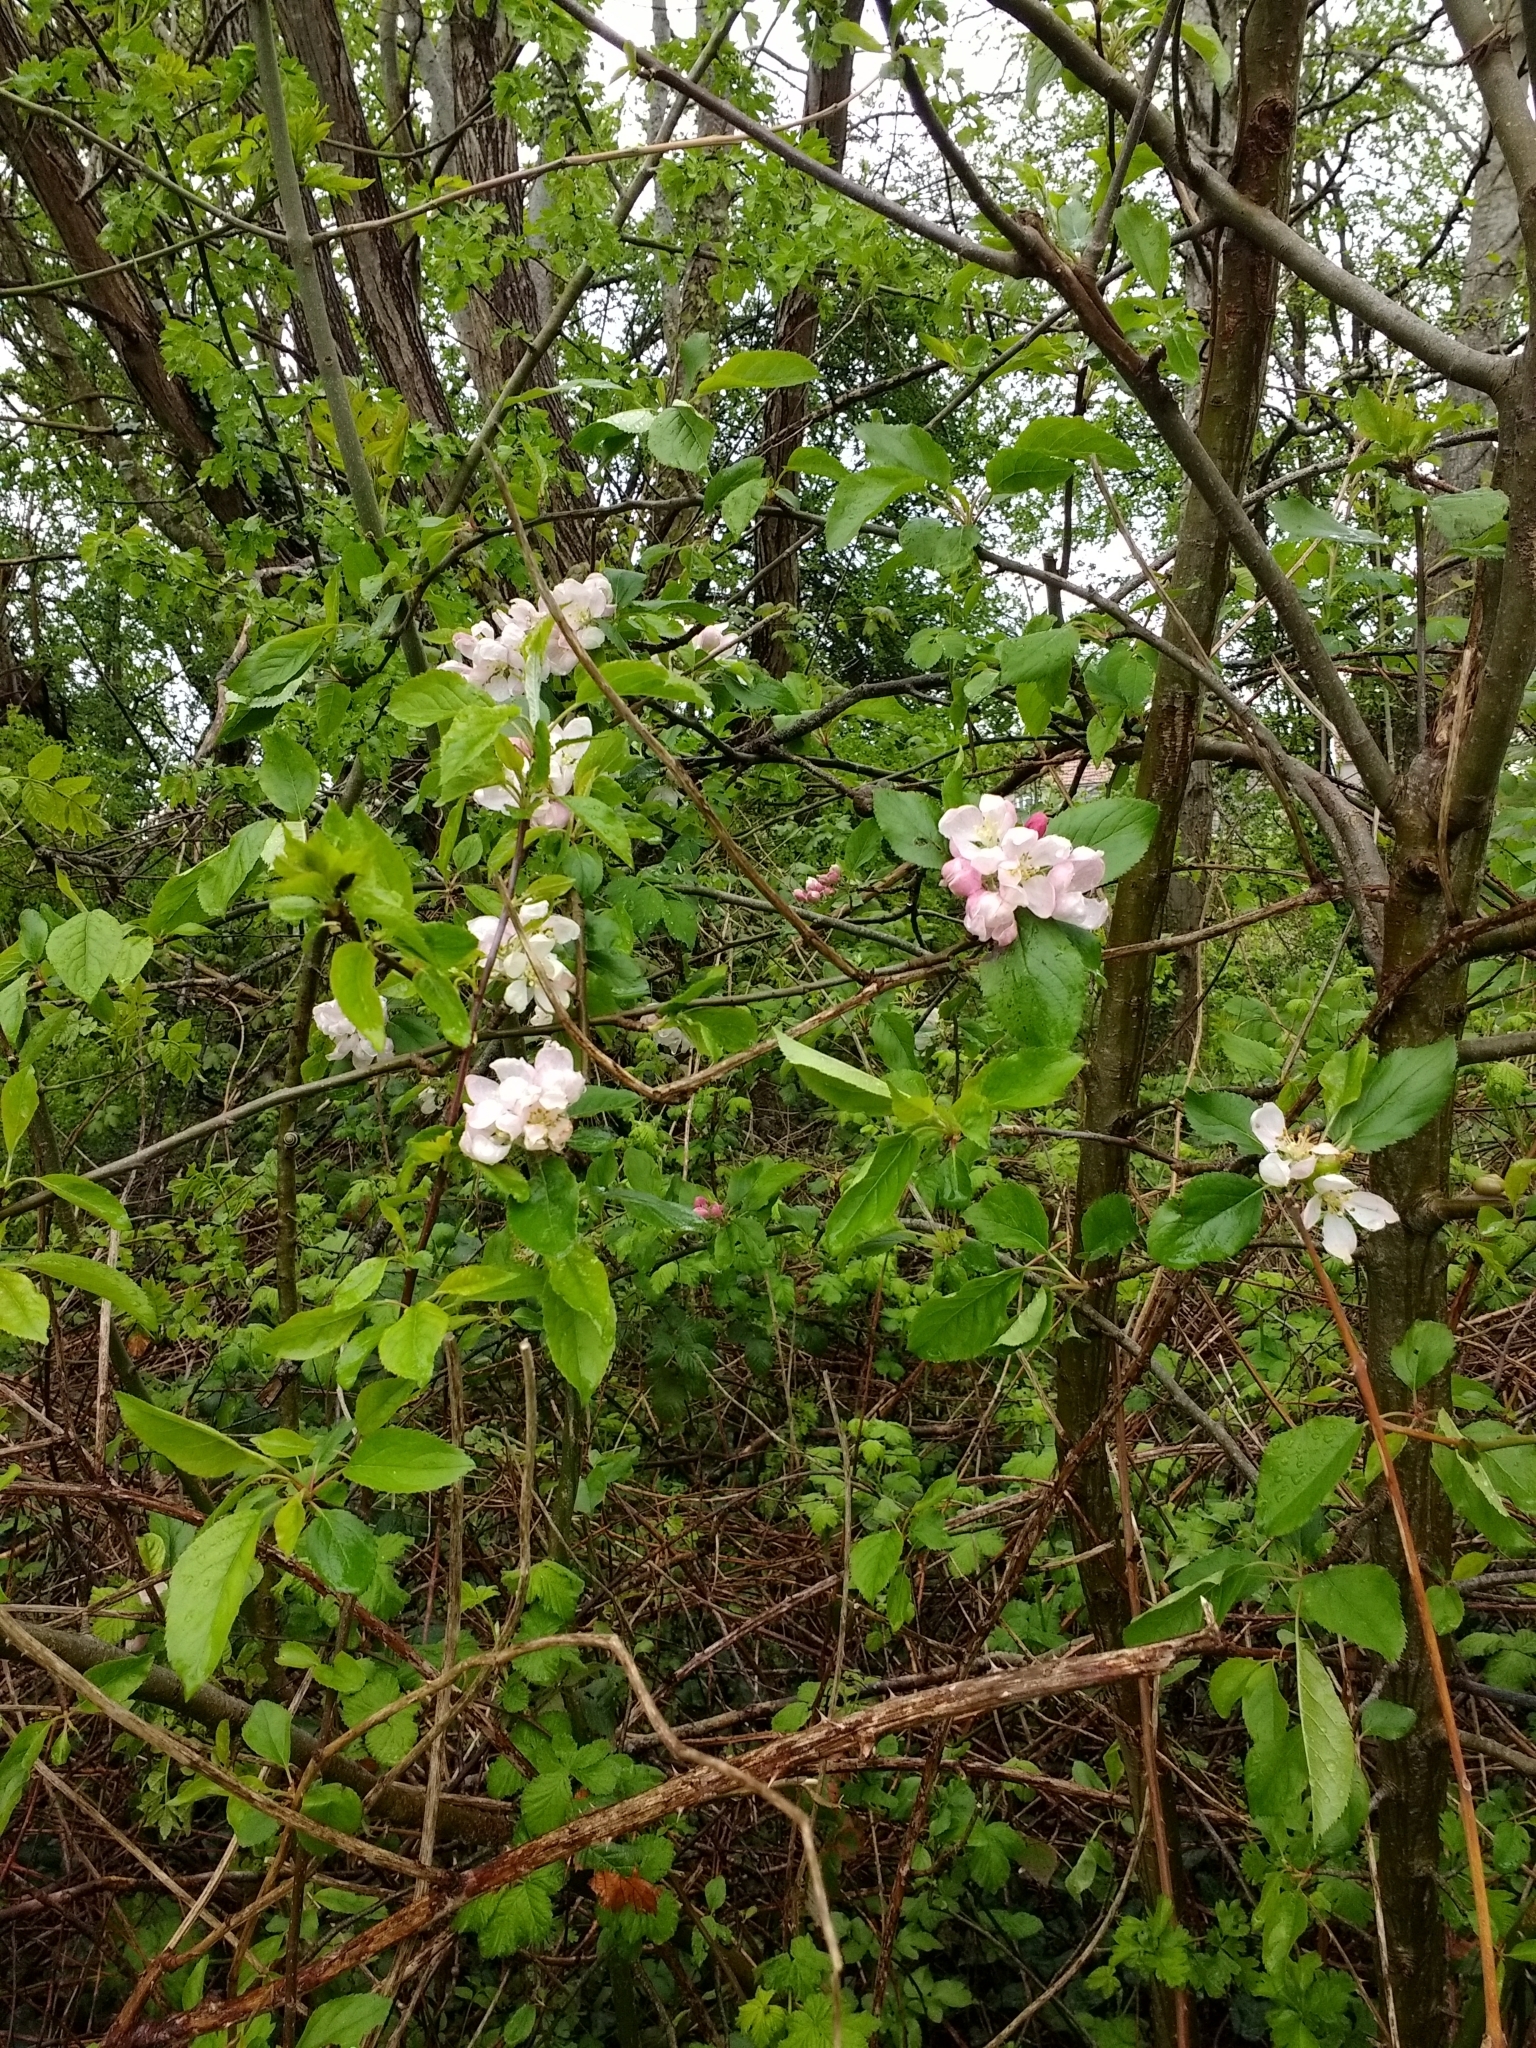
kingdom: Plantae
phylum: Tracheophyta
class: Magnoliopsida
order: Rosales
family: Rosaceae
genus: Malus
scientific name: Malus domestica
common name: Apple
